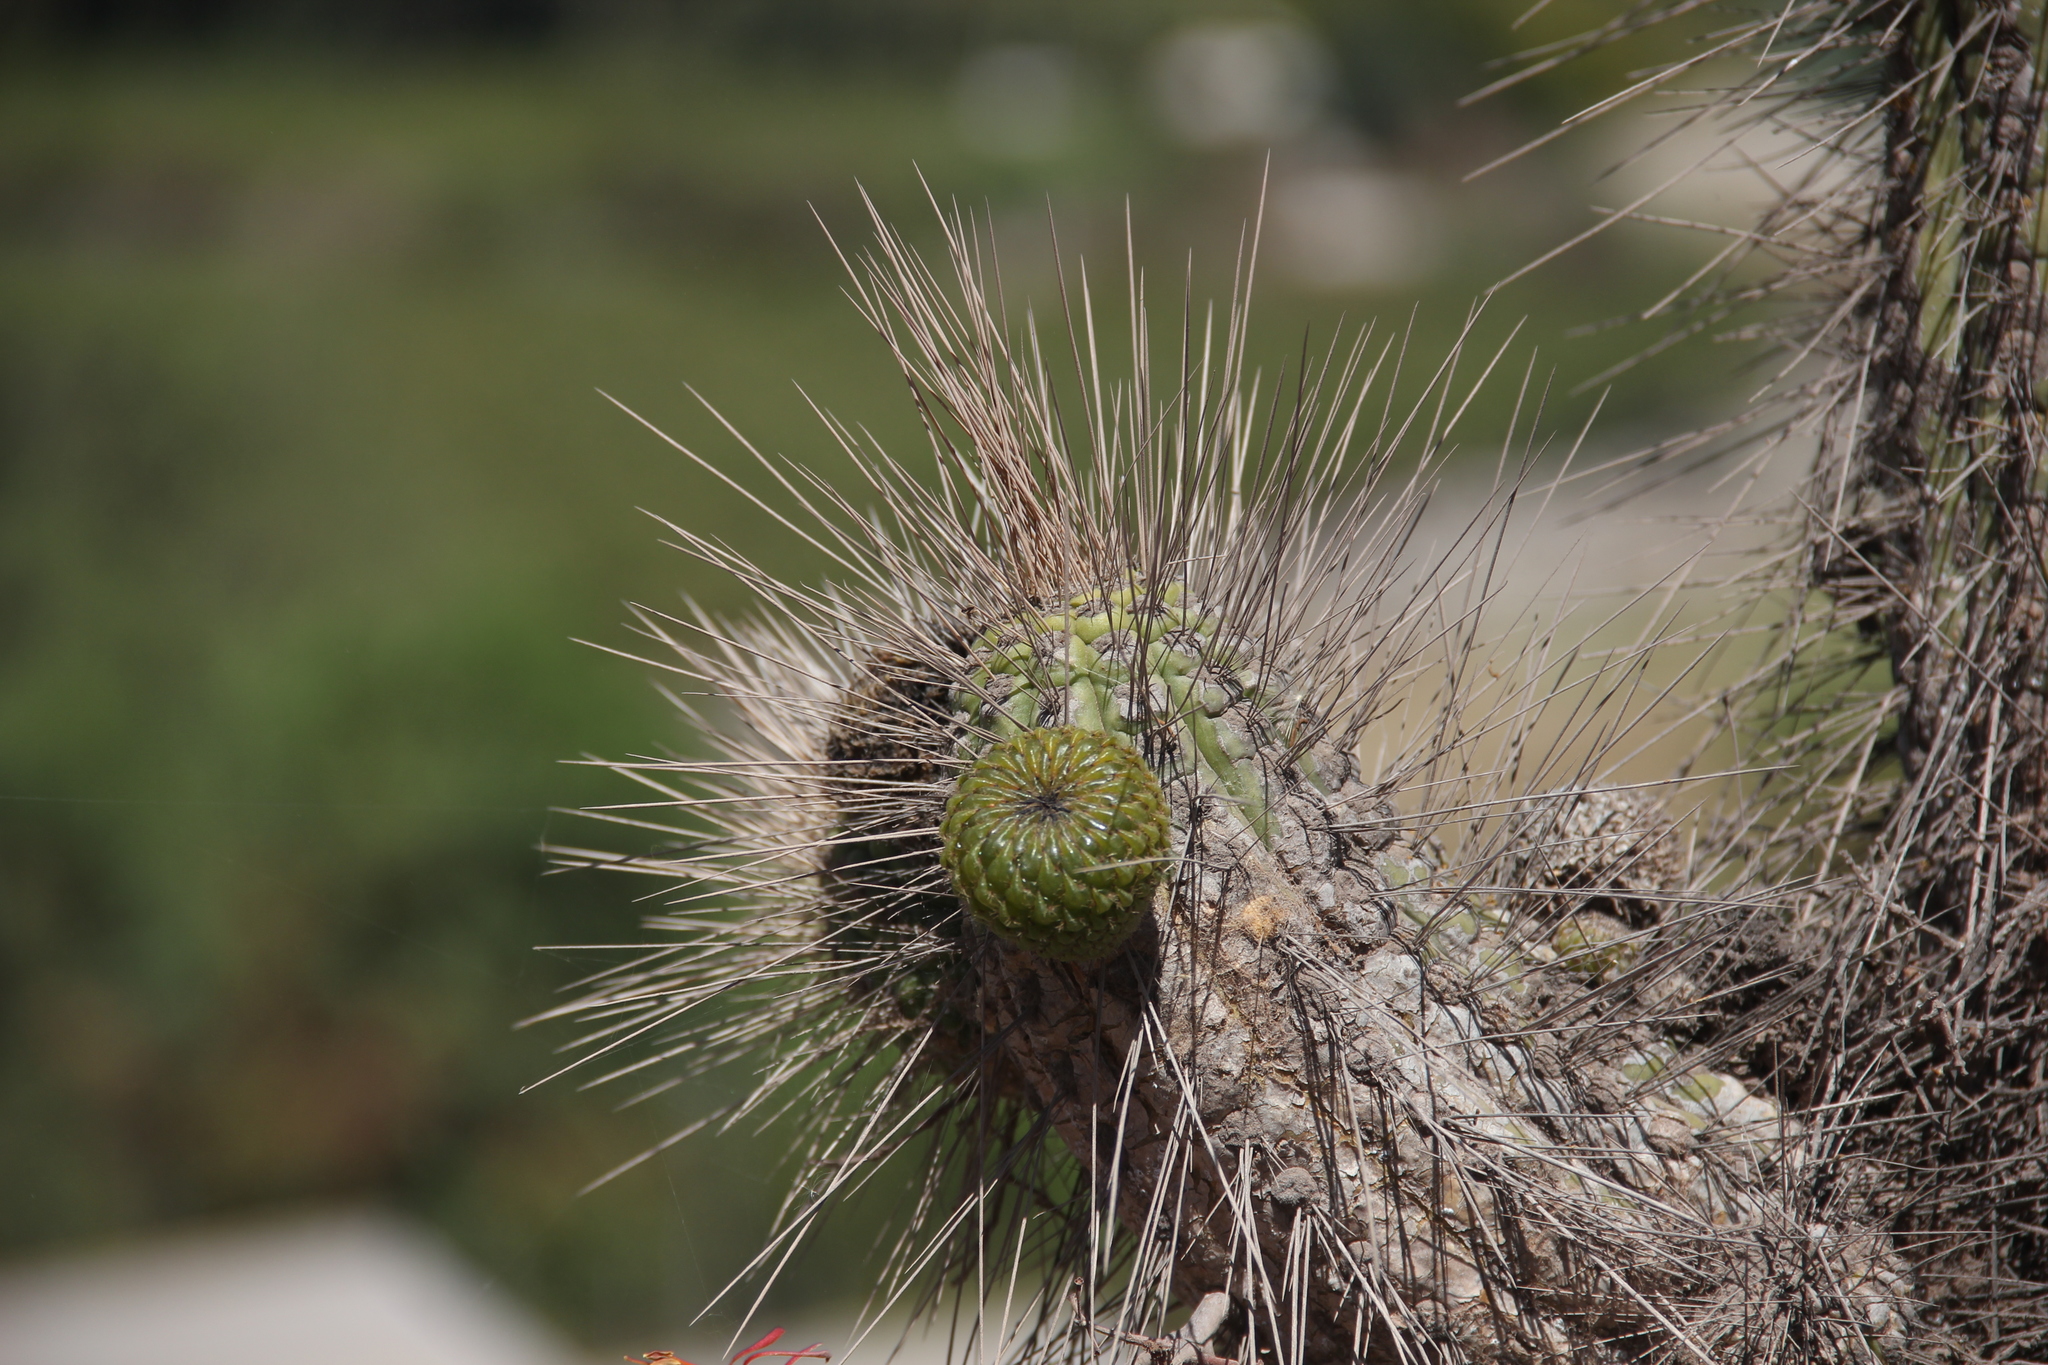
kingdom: Plantae
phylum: Tracheophyta
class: Magnoliopsida
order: Caryophyllales
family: Cactaceae
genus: Eulychnia
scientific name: Eulychnia acida
